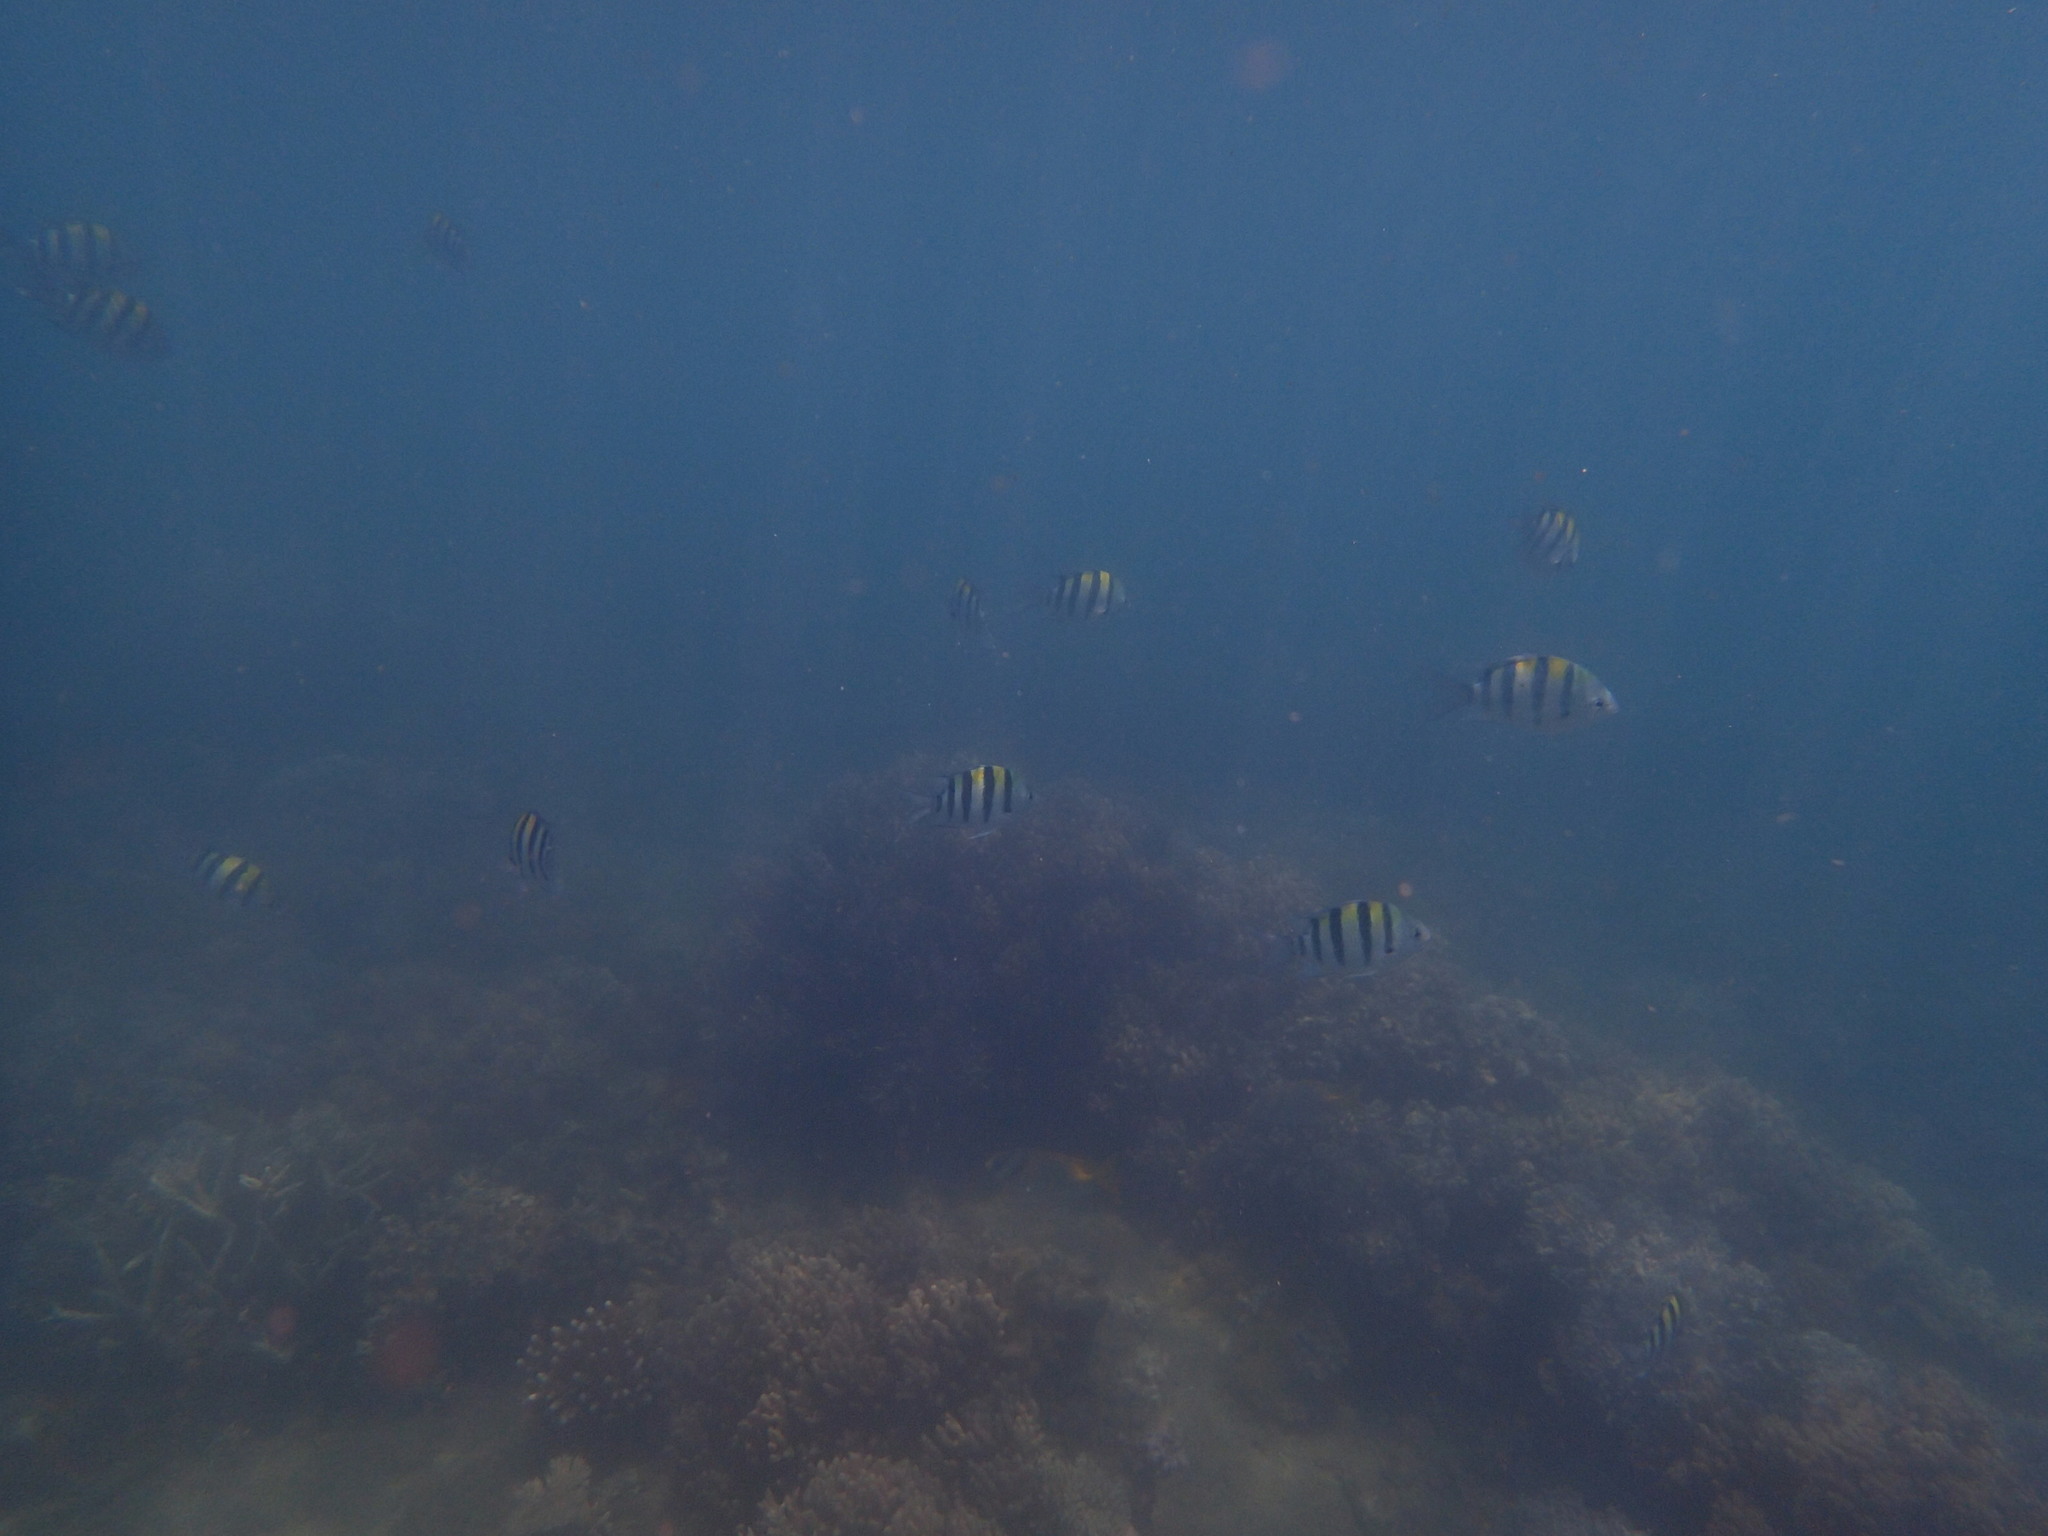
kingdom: Animalia
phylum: Chordata
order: Perciformes
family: Pomacentridae
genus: Abudefduf
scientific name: Abudefduf vaigiensis
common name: Indo-pacific sergeant
